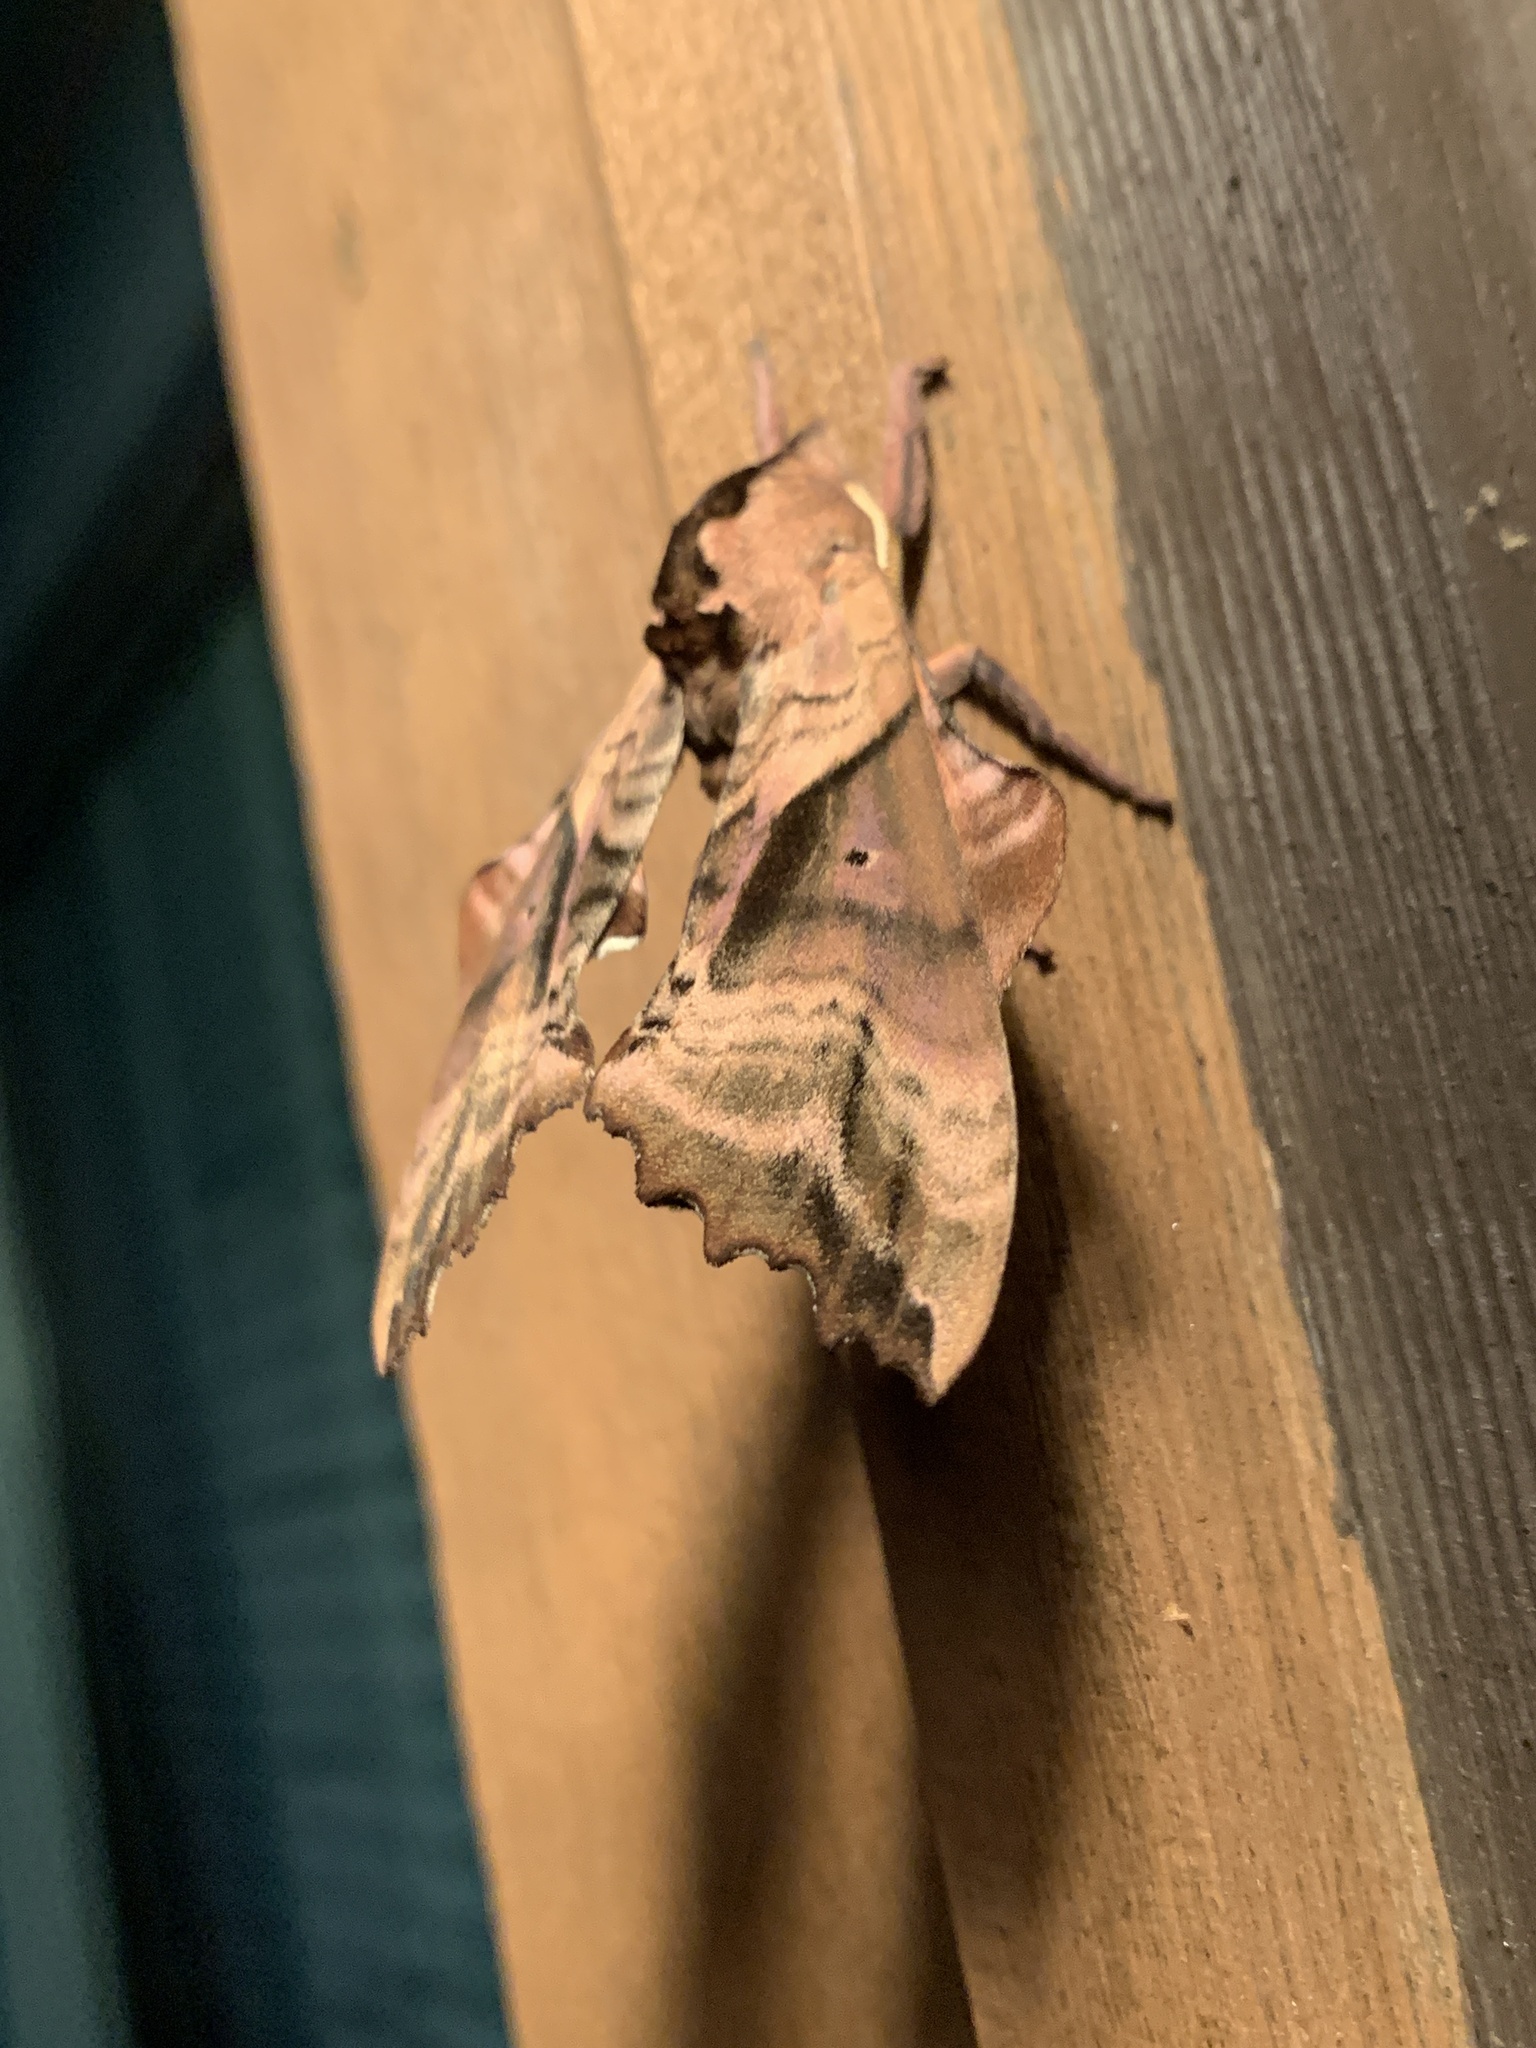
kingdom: Animalia
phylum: Arthropoda
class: Insecta
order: Lepidoptera
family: Sphingidae
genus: Paonias
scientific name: Paonias excaecata
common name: Blind-eyed sphinx
